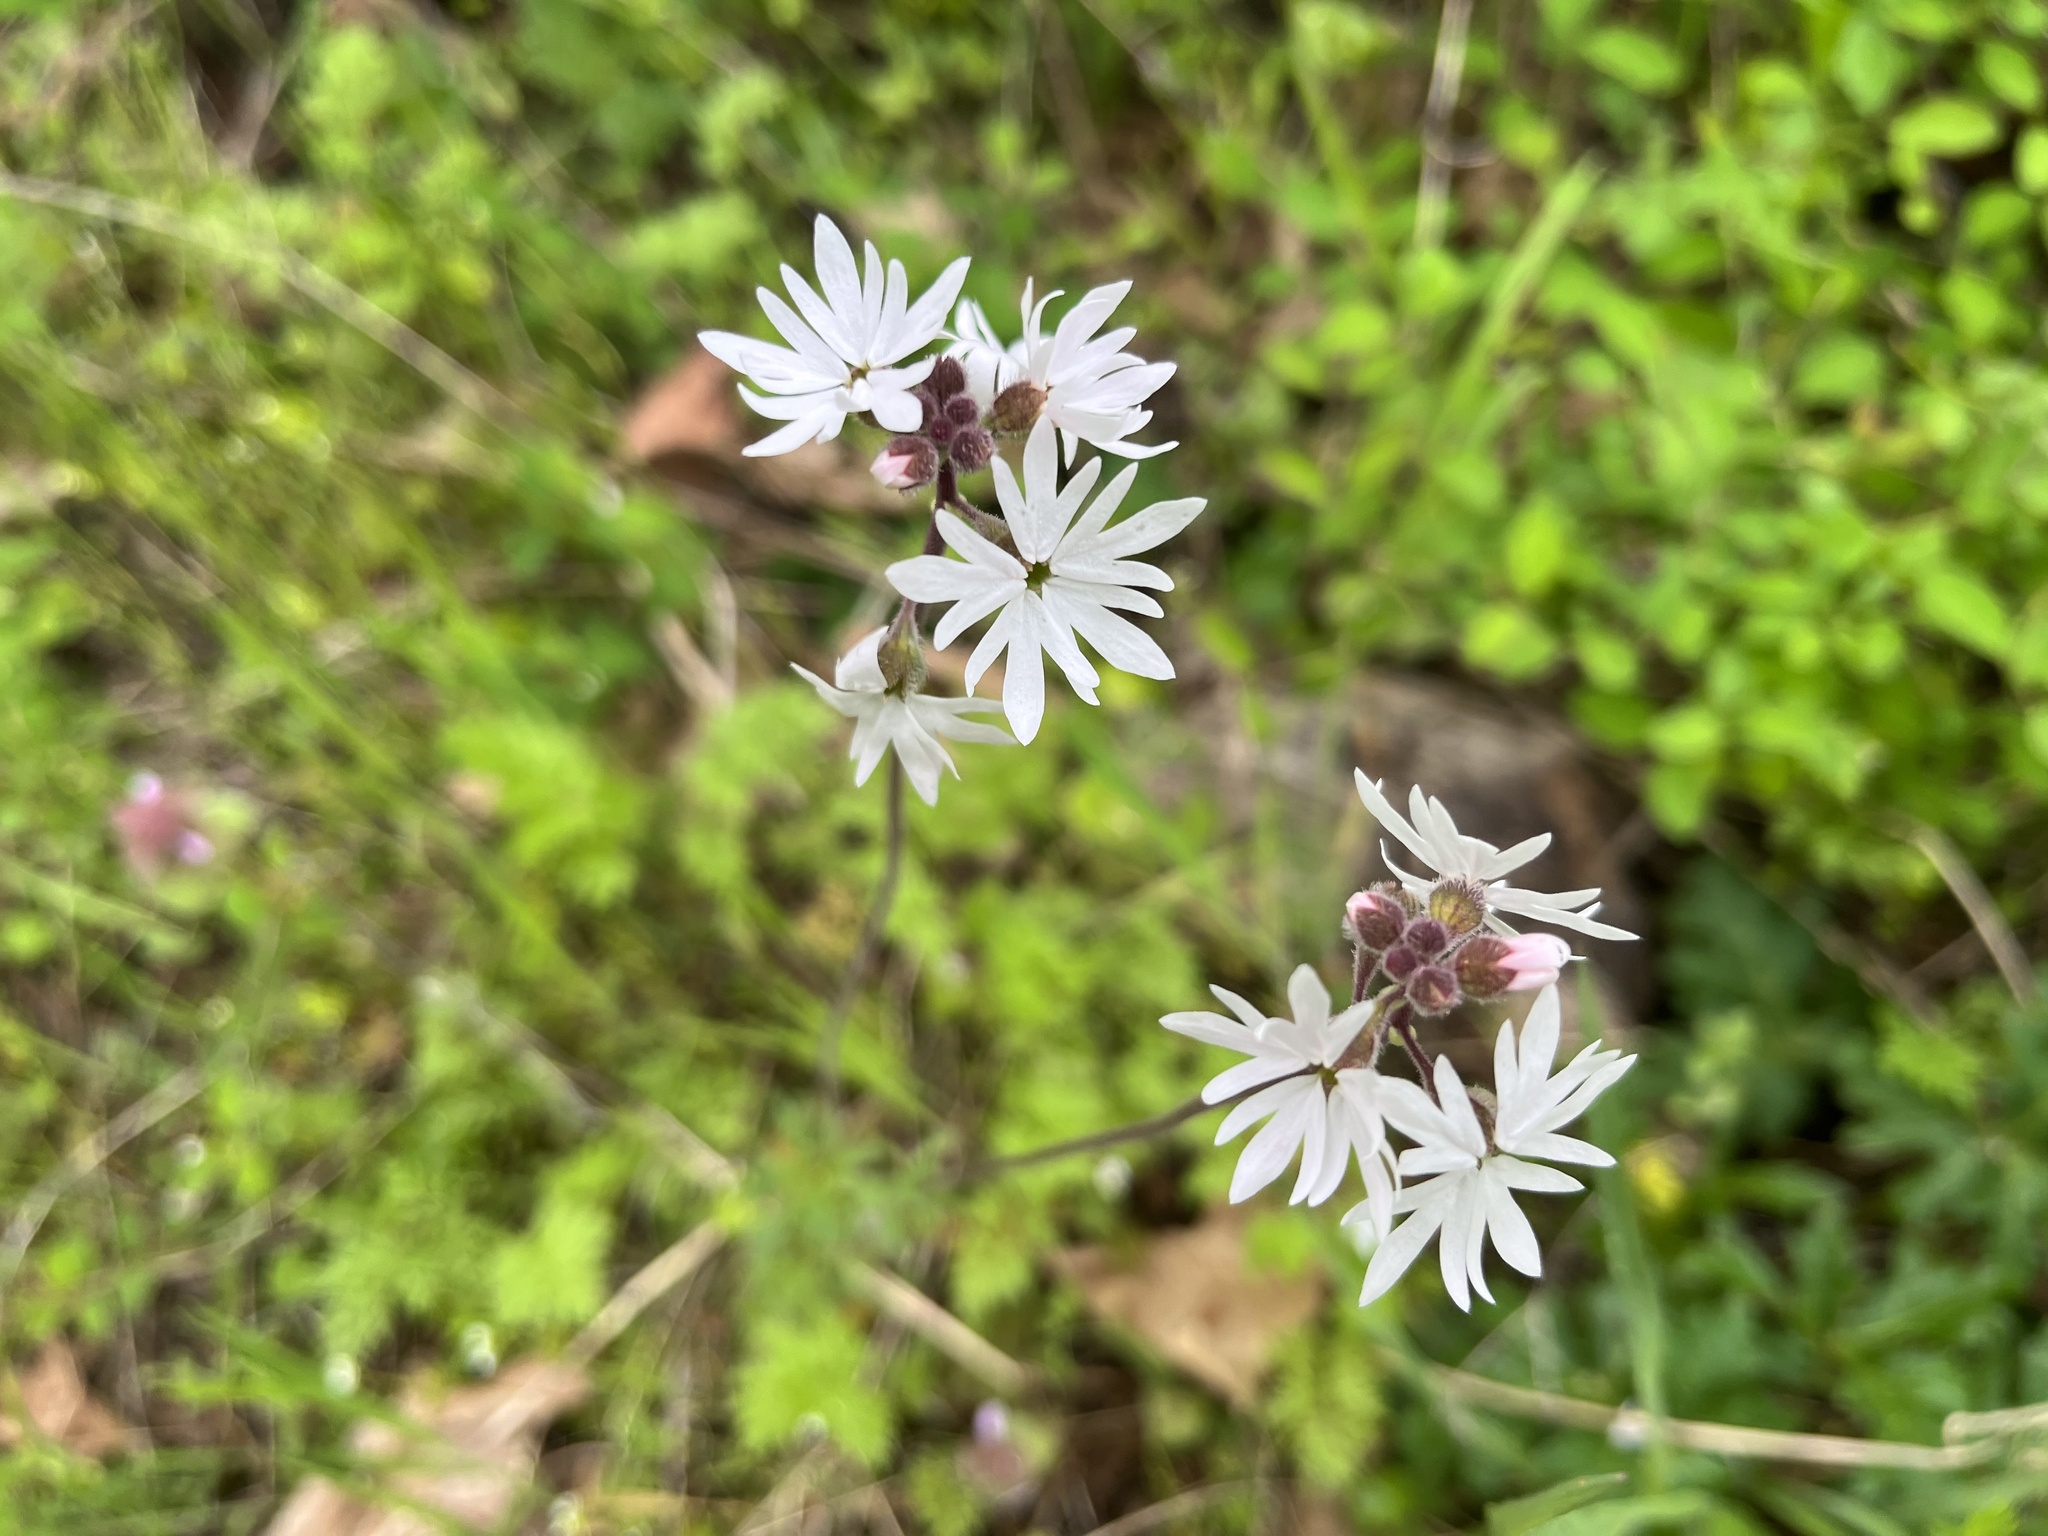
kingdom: Plantae
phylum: Tracheophyta
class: Magnoliopsida
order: Saxifragales
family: Saxifragaceae
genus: Lithophragma
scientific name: Lithophragma parviflorum
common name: Small-flowered fringe-cup
